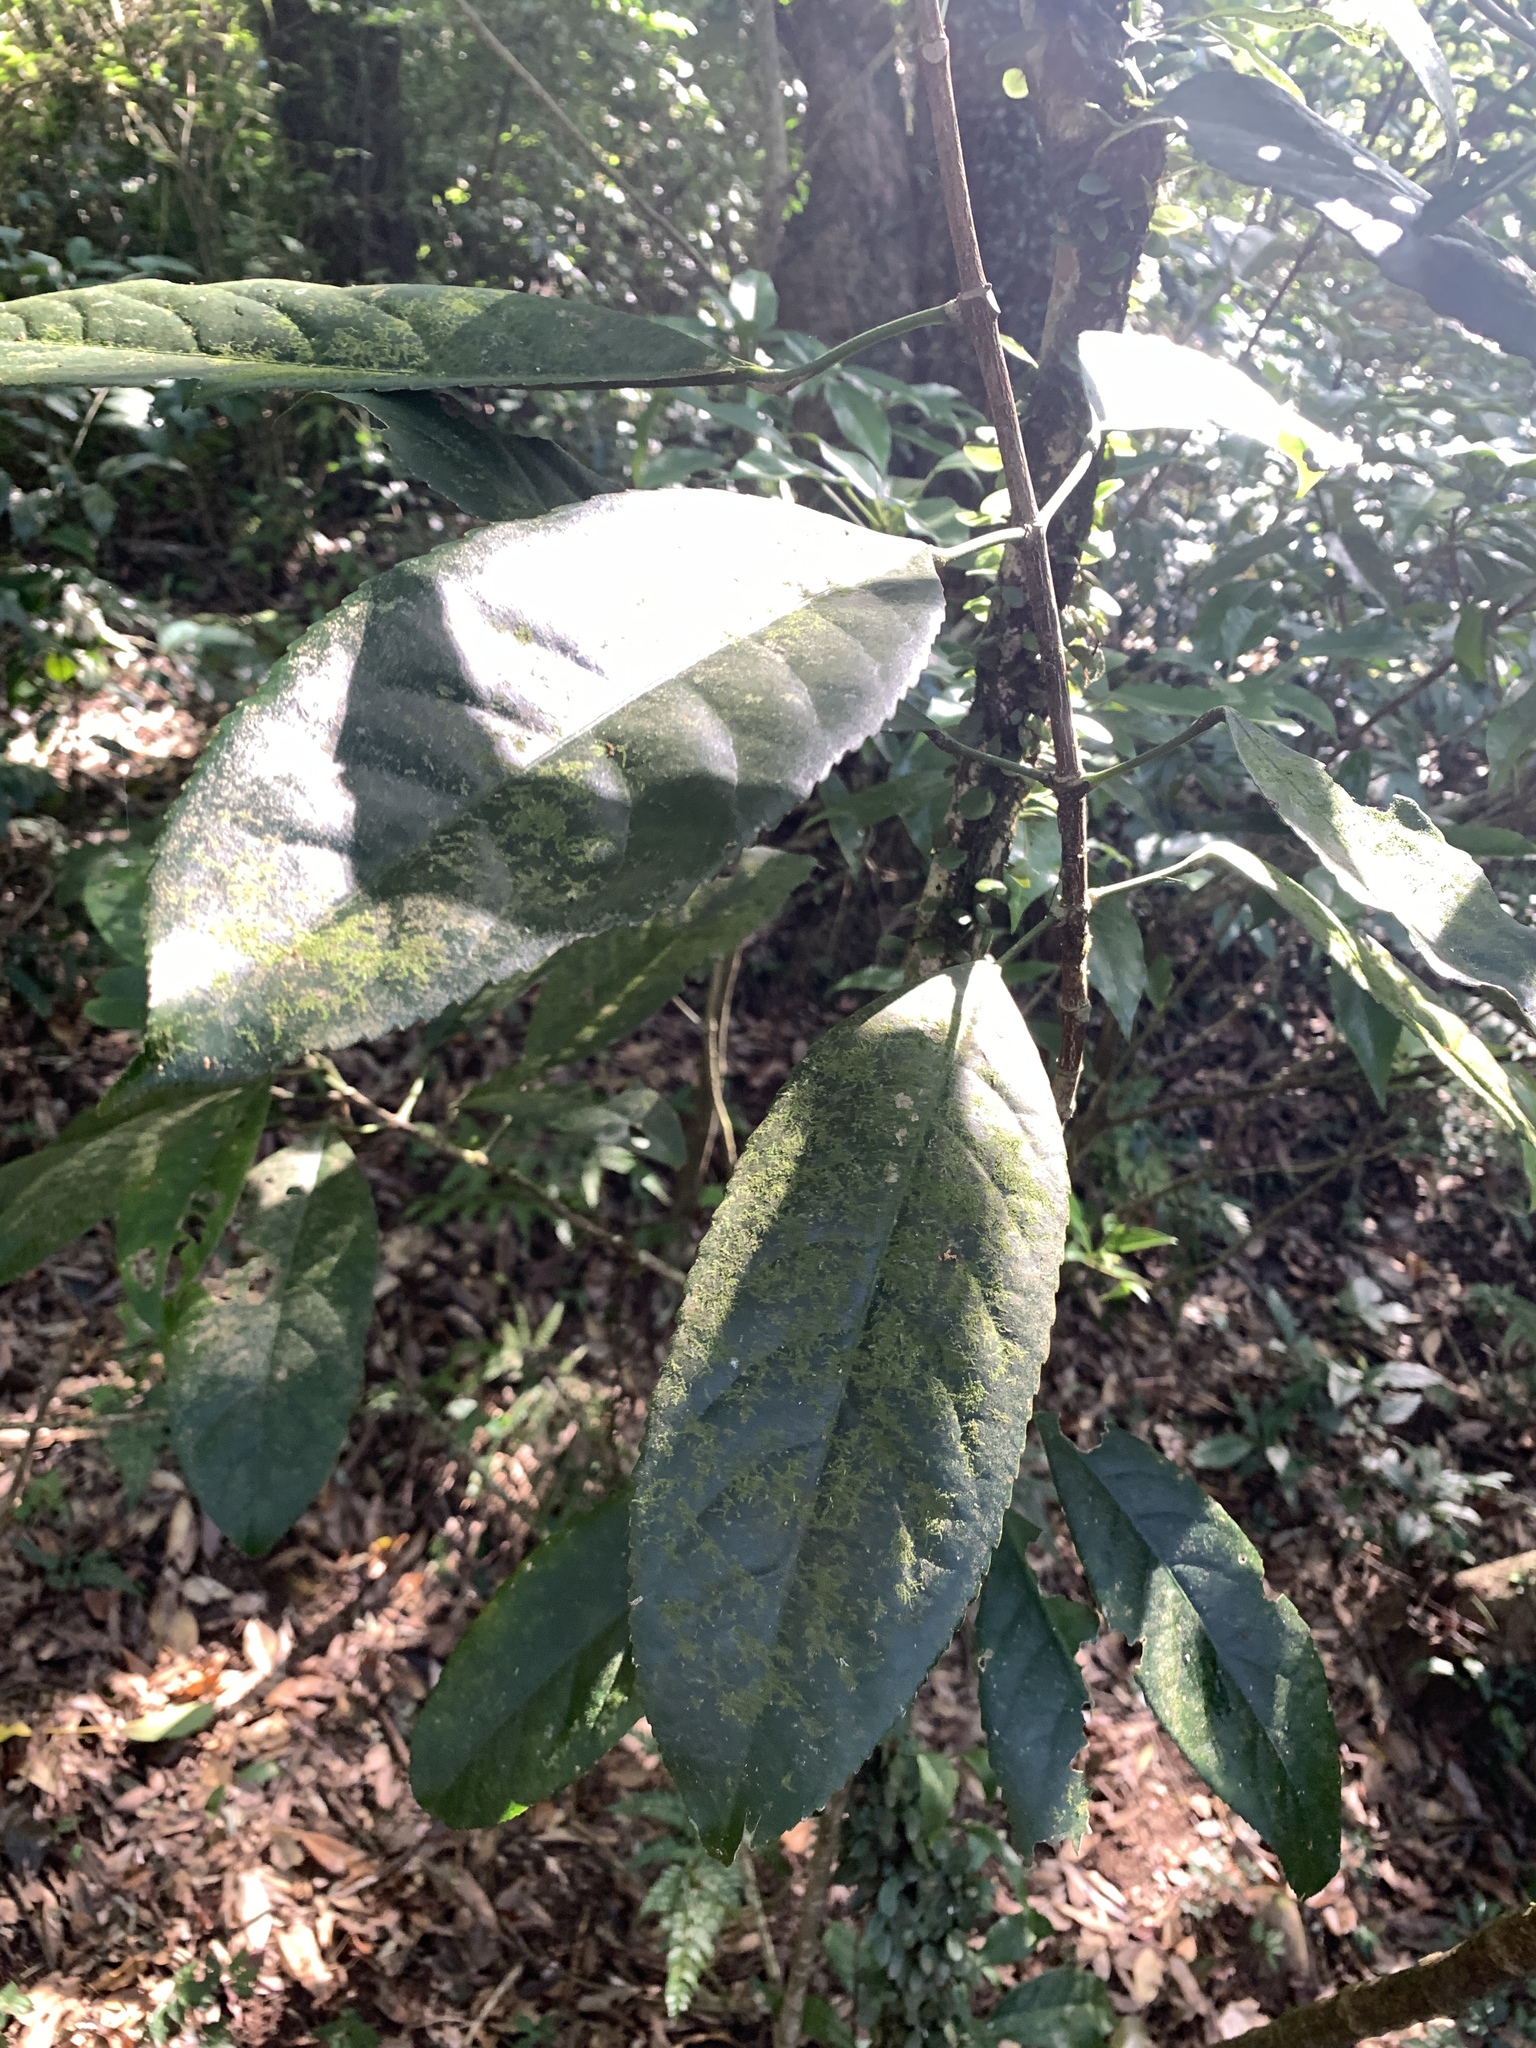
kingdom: Plantae
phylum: Tracheophyta
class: Magnoliopsida
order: Crossosomatales
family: Staphyleaceae
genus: Turpinia
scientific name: Turpinia formosana
